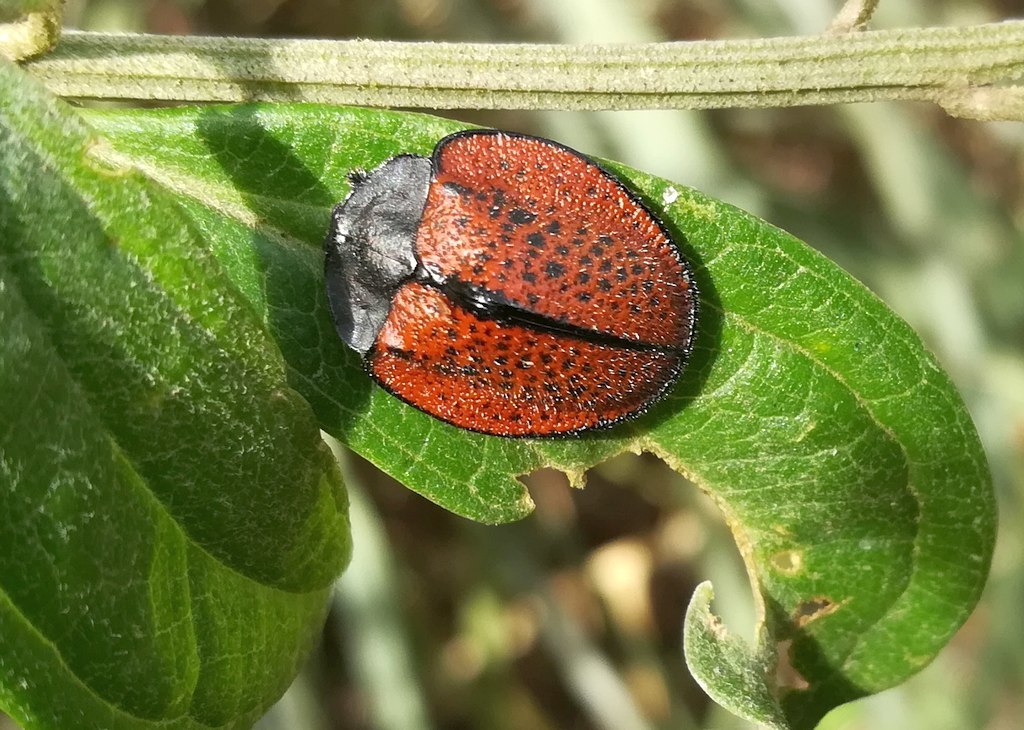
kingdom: Animalia
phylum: Arthropoda
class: Insecta
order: Coleoptera
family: Chrysomelidae
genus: Cyrtonota
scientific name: Cyrtonota gibbera
